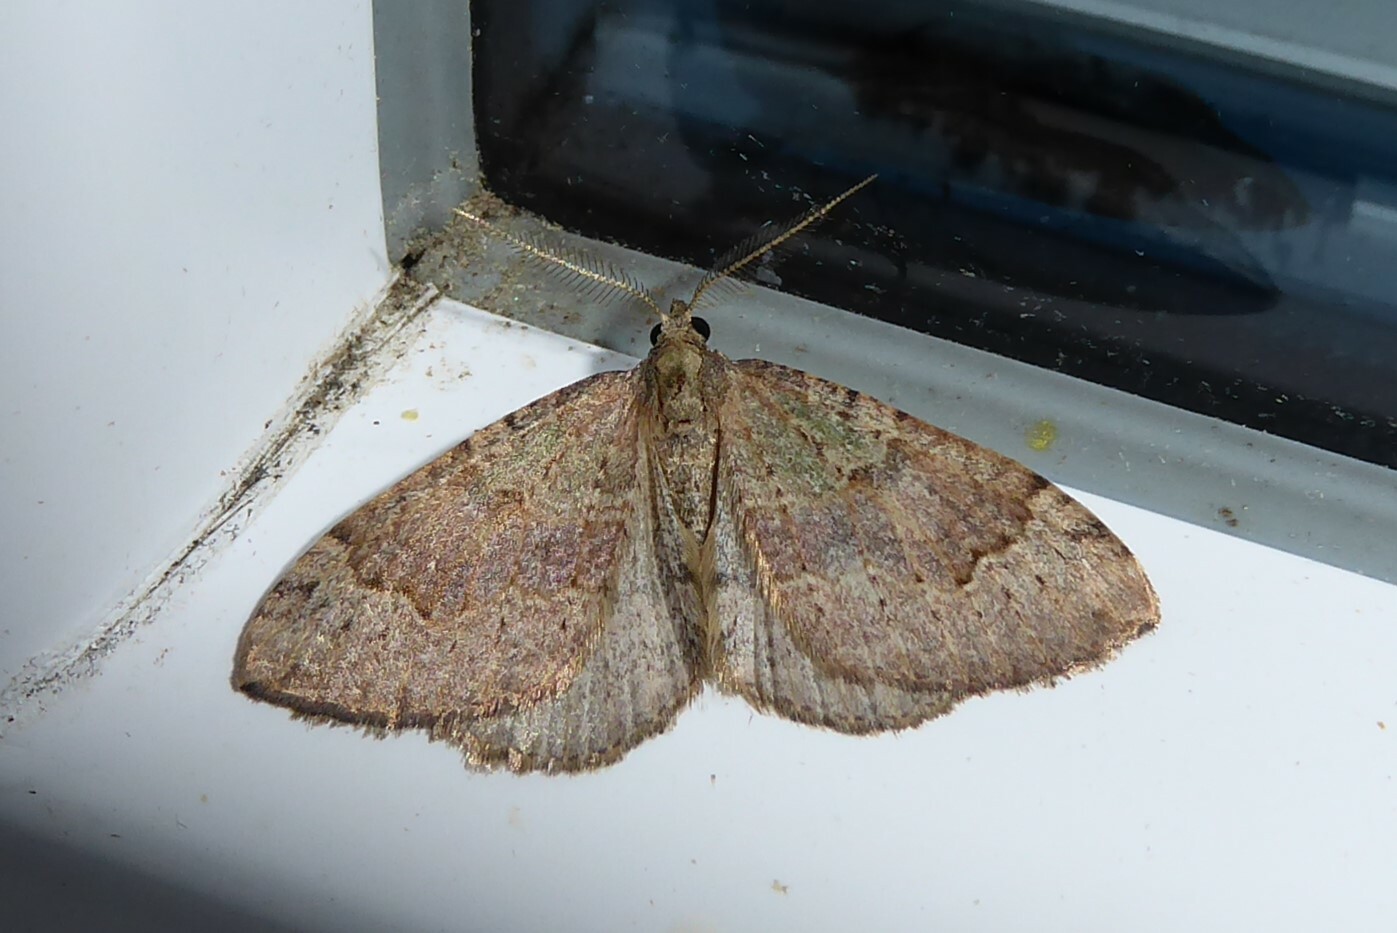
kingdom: Animalia
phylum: Arthropoda
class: Insecta
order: Lepidoptera
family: Geometridae
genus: Epyaxa
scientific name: Epyaxa rosearia
